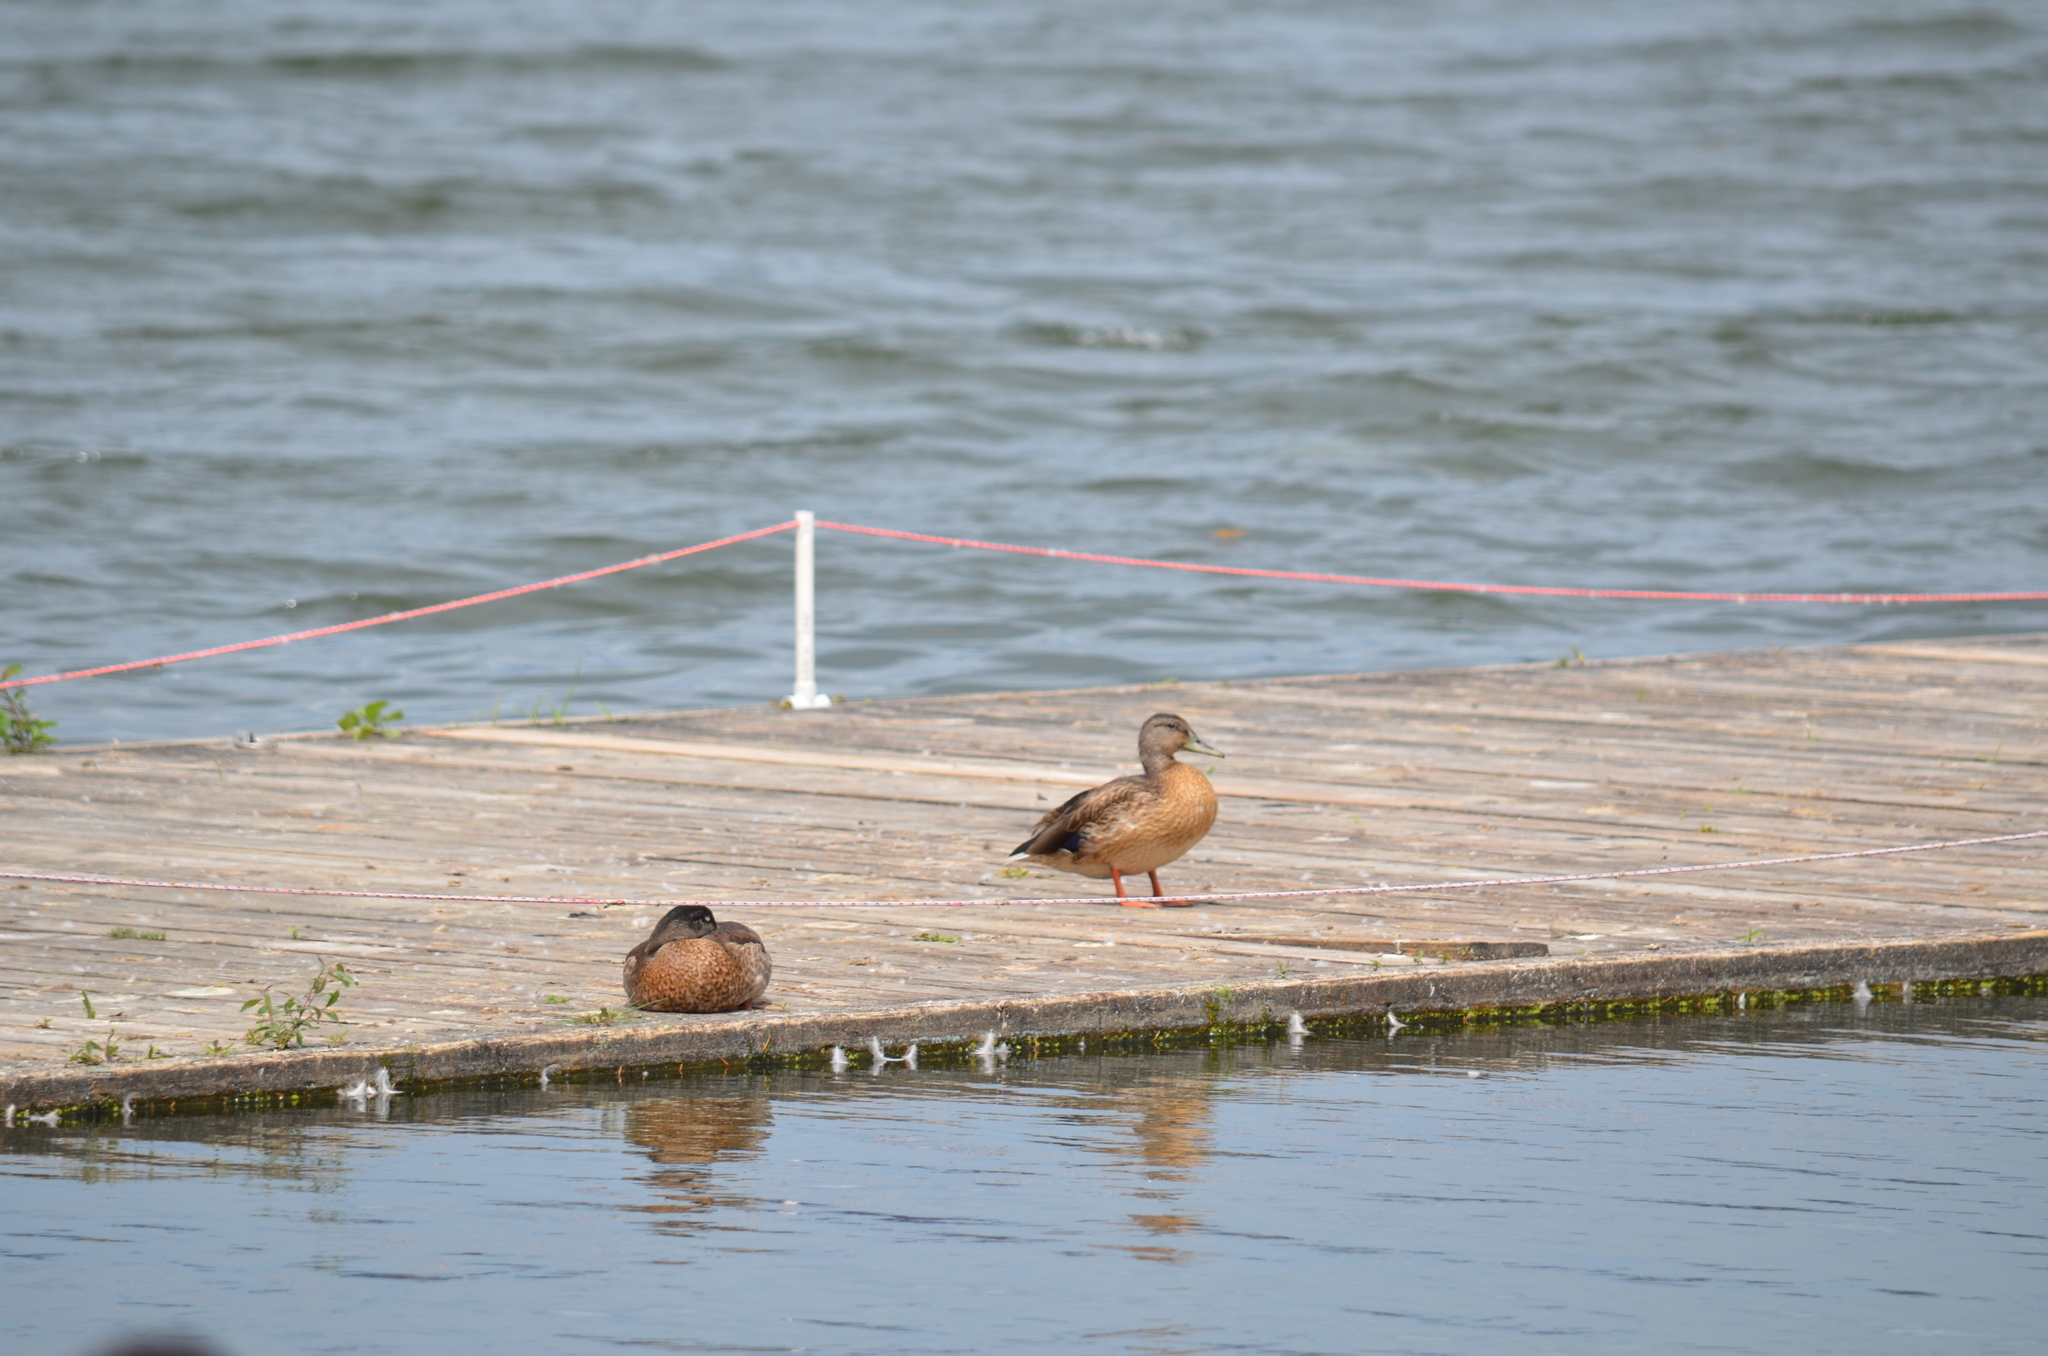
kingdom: Animalia
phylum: Chordata
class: Aves
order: Anseriformes
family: Anatidae
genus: Anas
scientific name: Anas platyrhynchos
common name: Mallard
